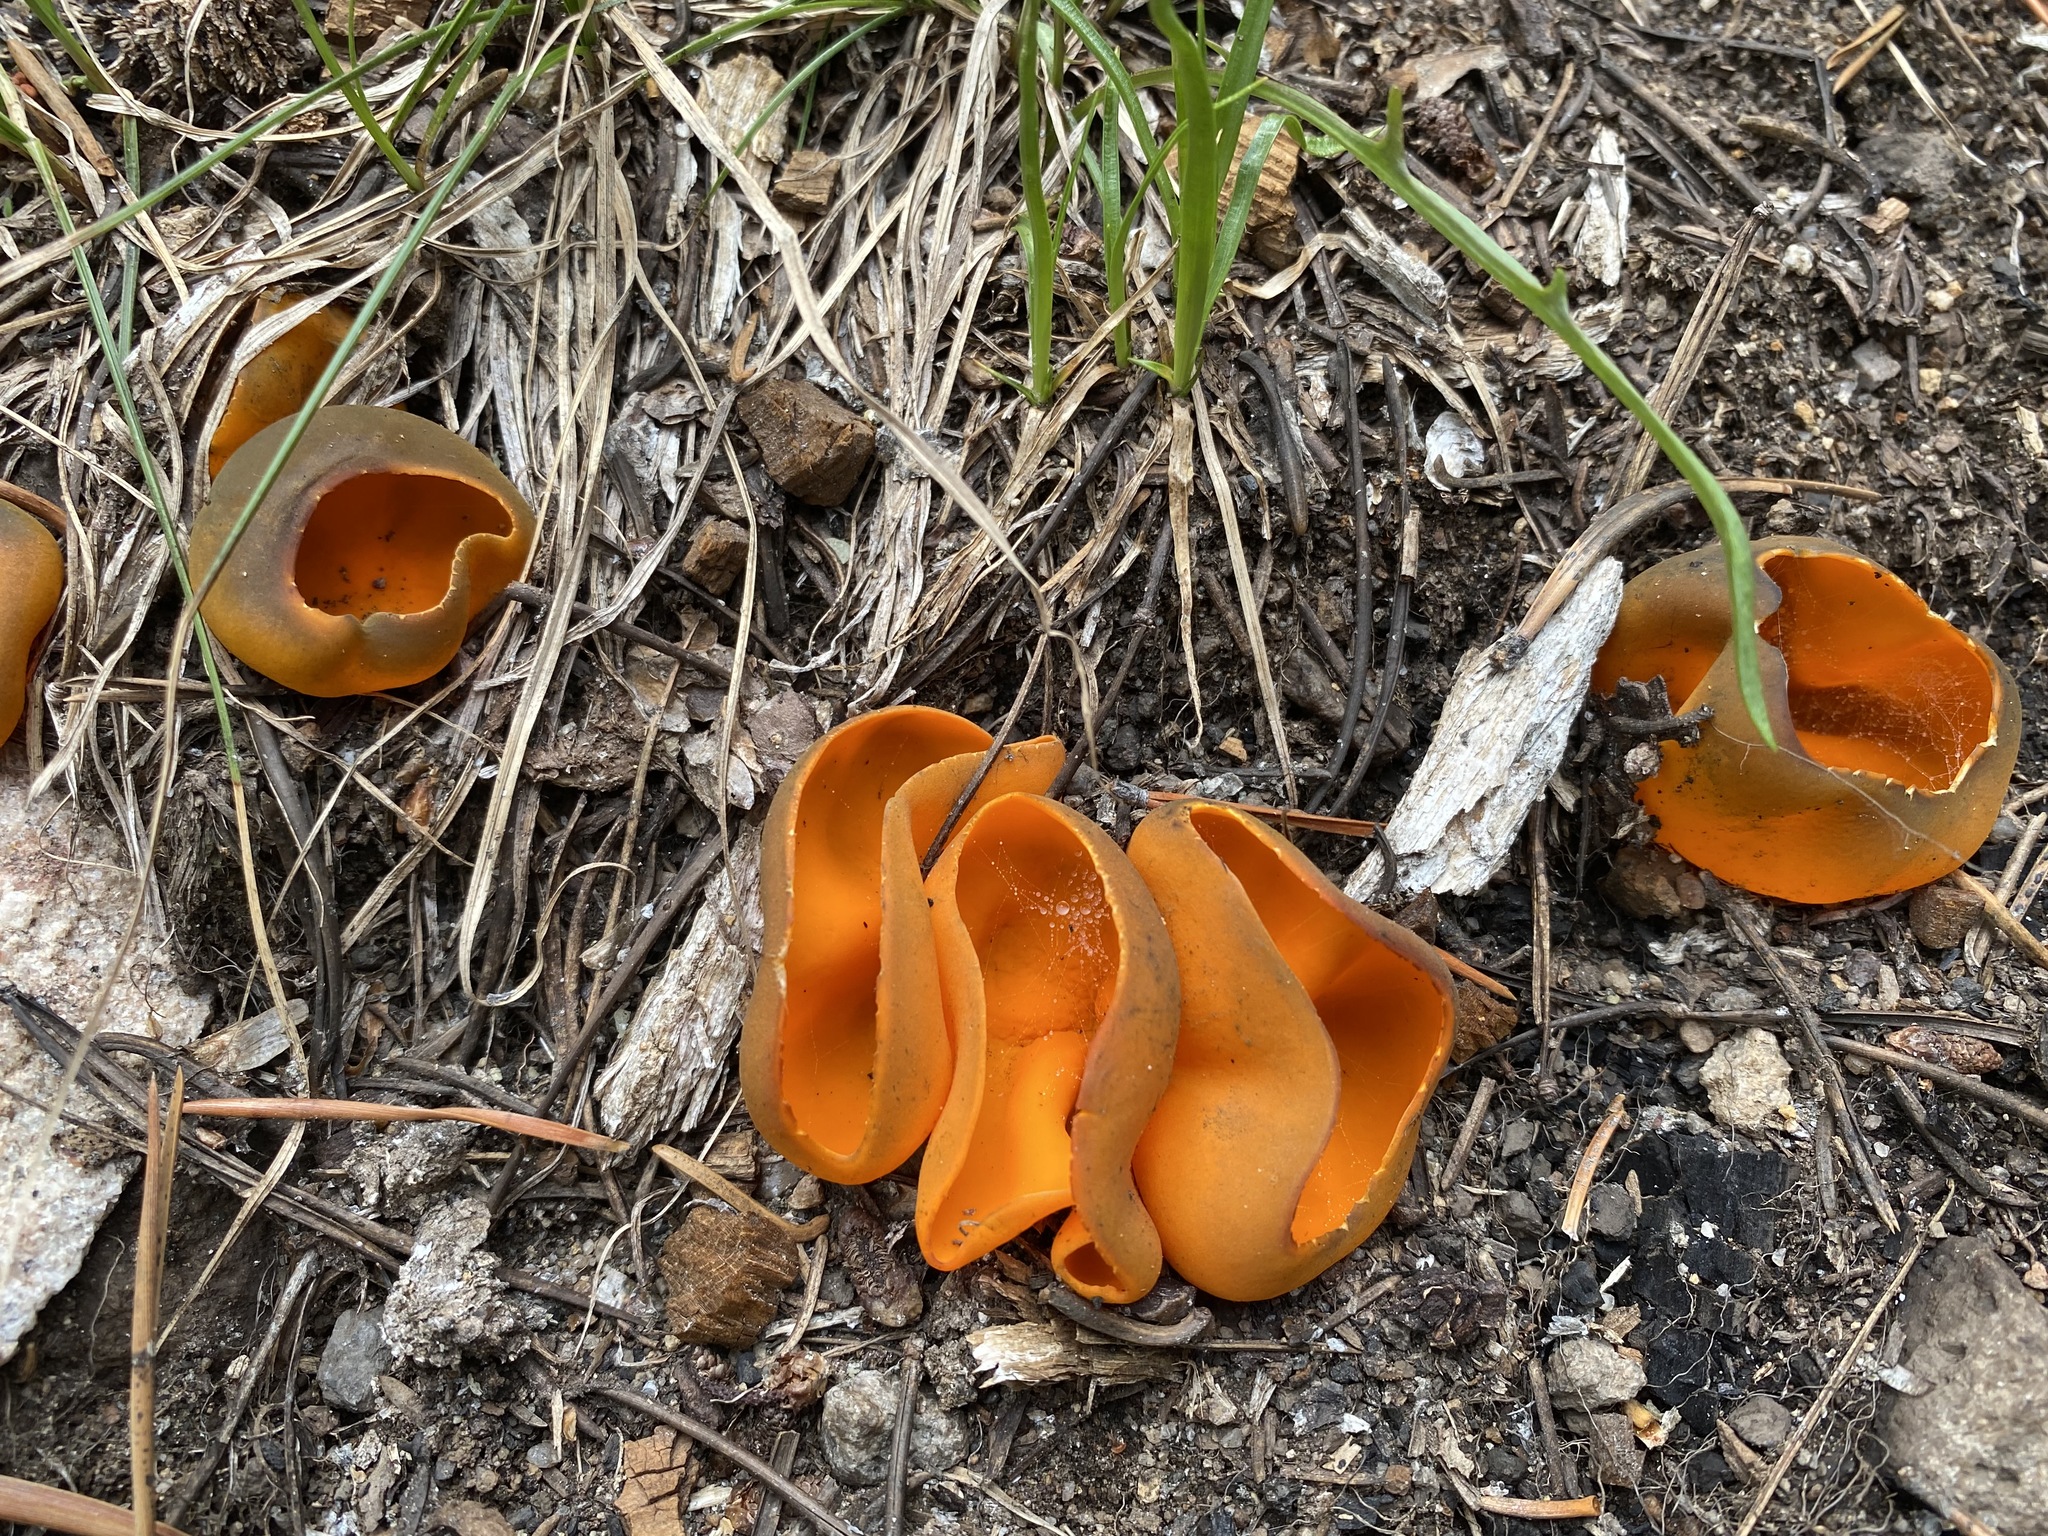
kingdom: Fungi
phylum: Ascomycota
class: Pezizomycetes
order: Pezizales
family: Caloscyphaceae
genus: Caloscypha
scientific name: Caloscypha fulgens
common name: Golden cup
